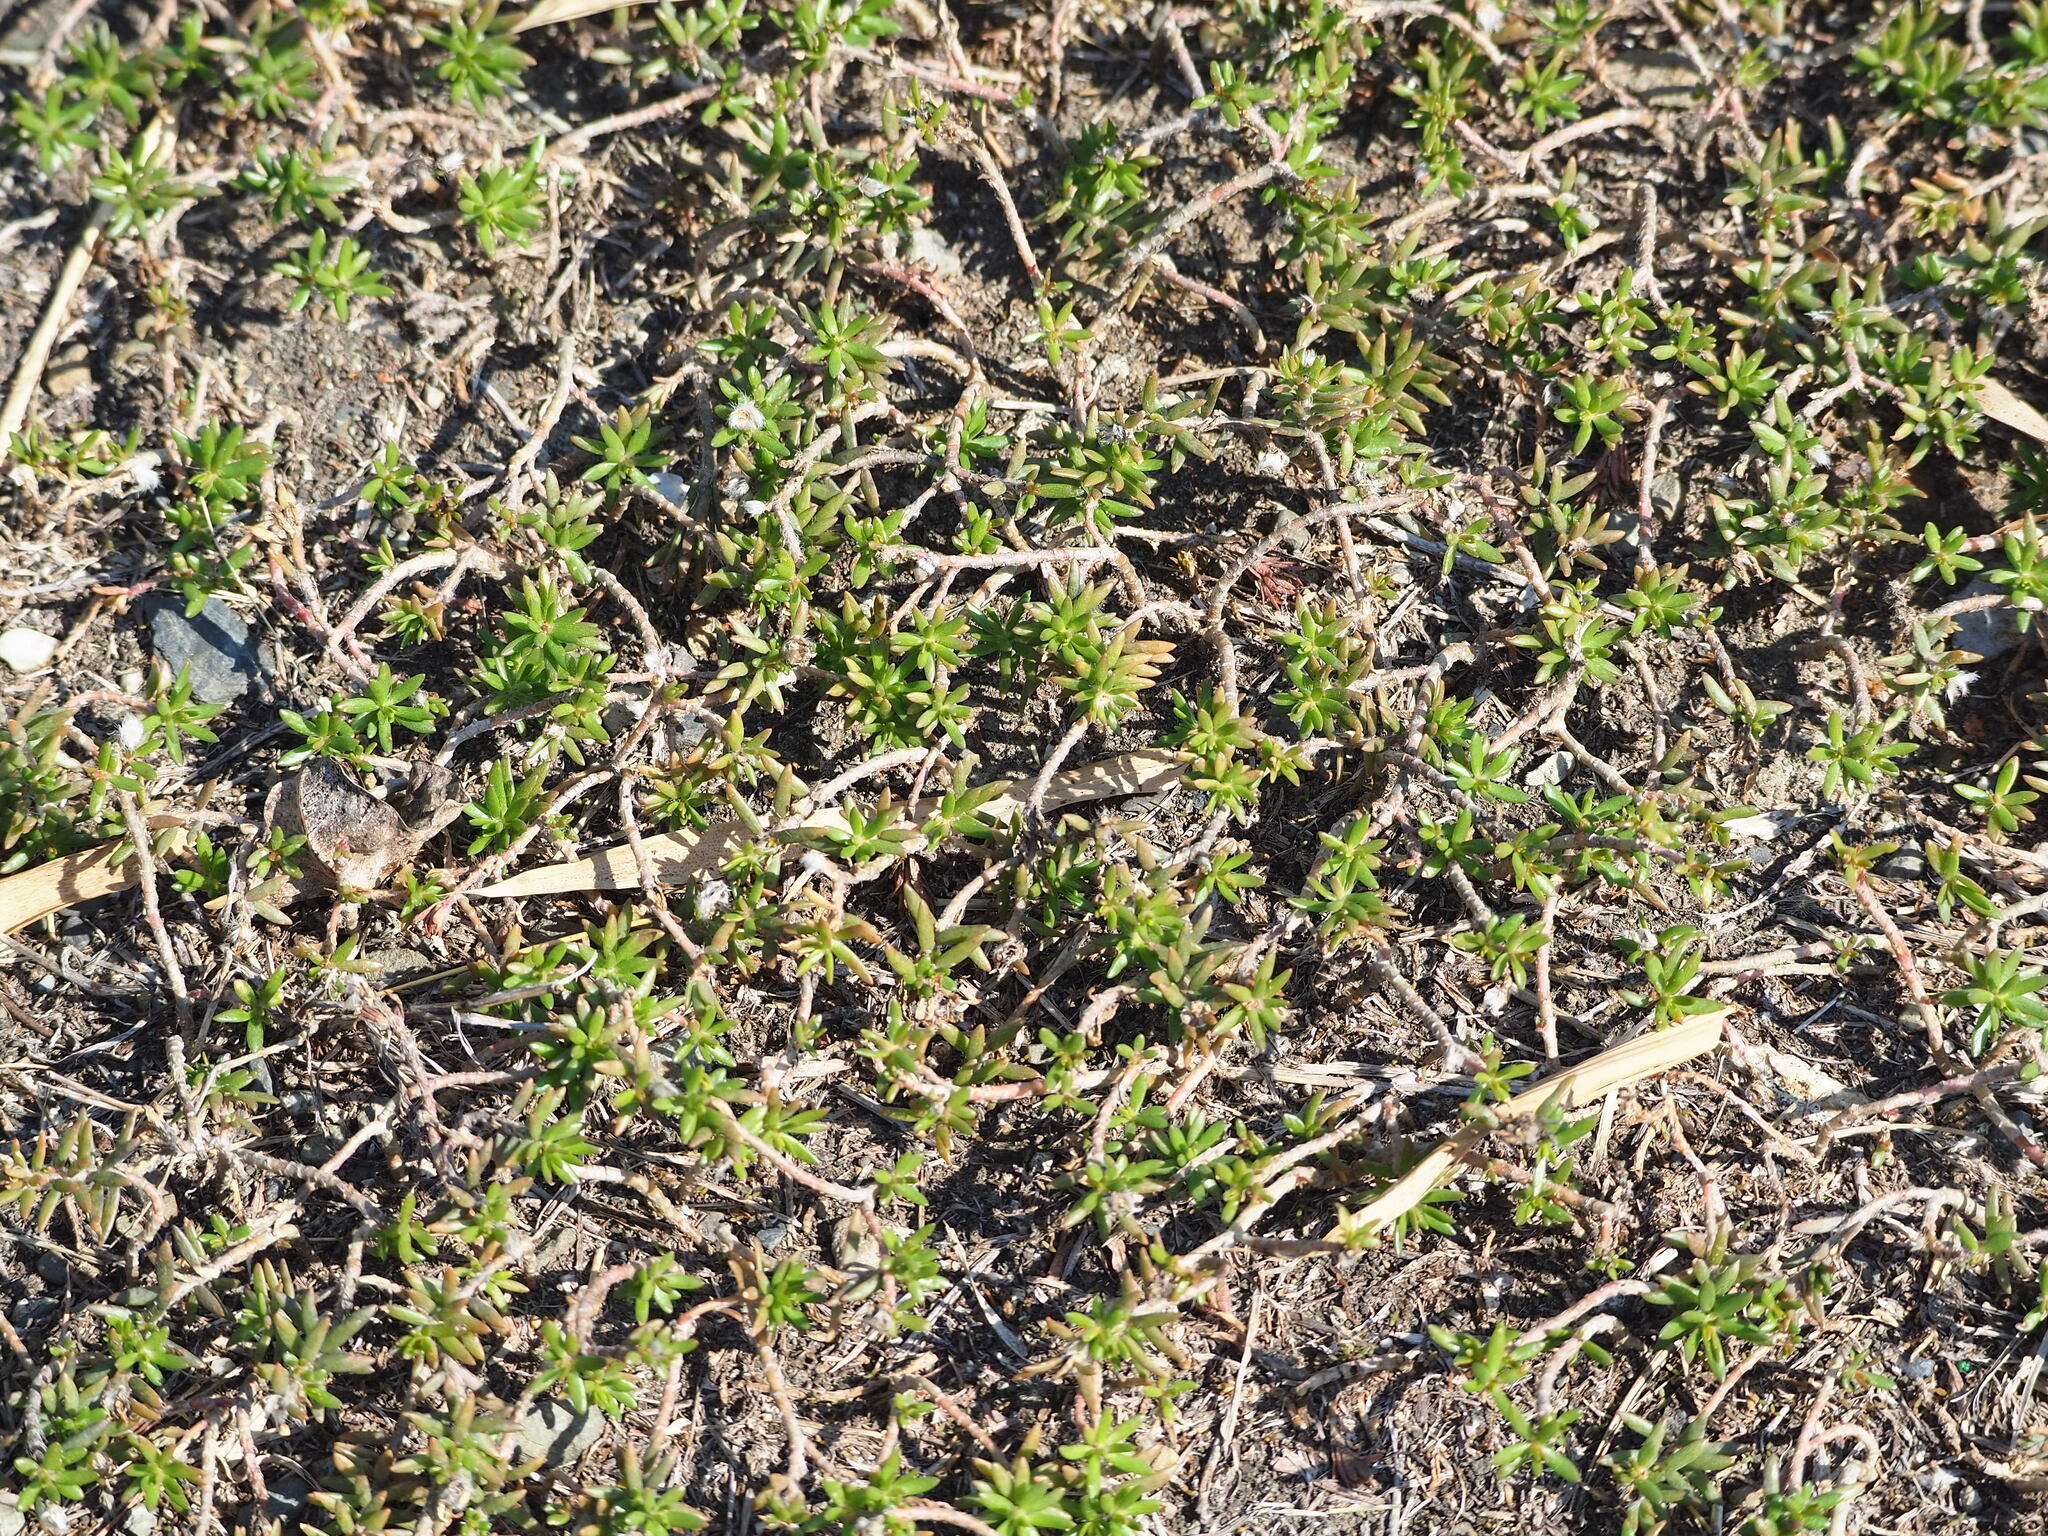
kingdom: Plantae
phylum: Tracheophyta
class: Magnoliopsida
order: Caryophyllales
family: Portulacaceae
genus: Portulaca
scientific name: Portulaca pilosa
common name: Kiss me quick
